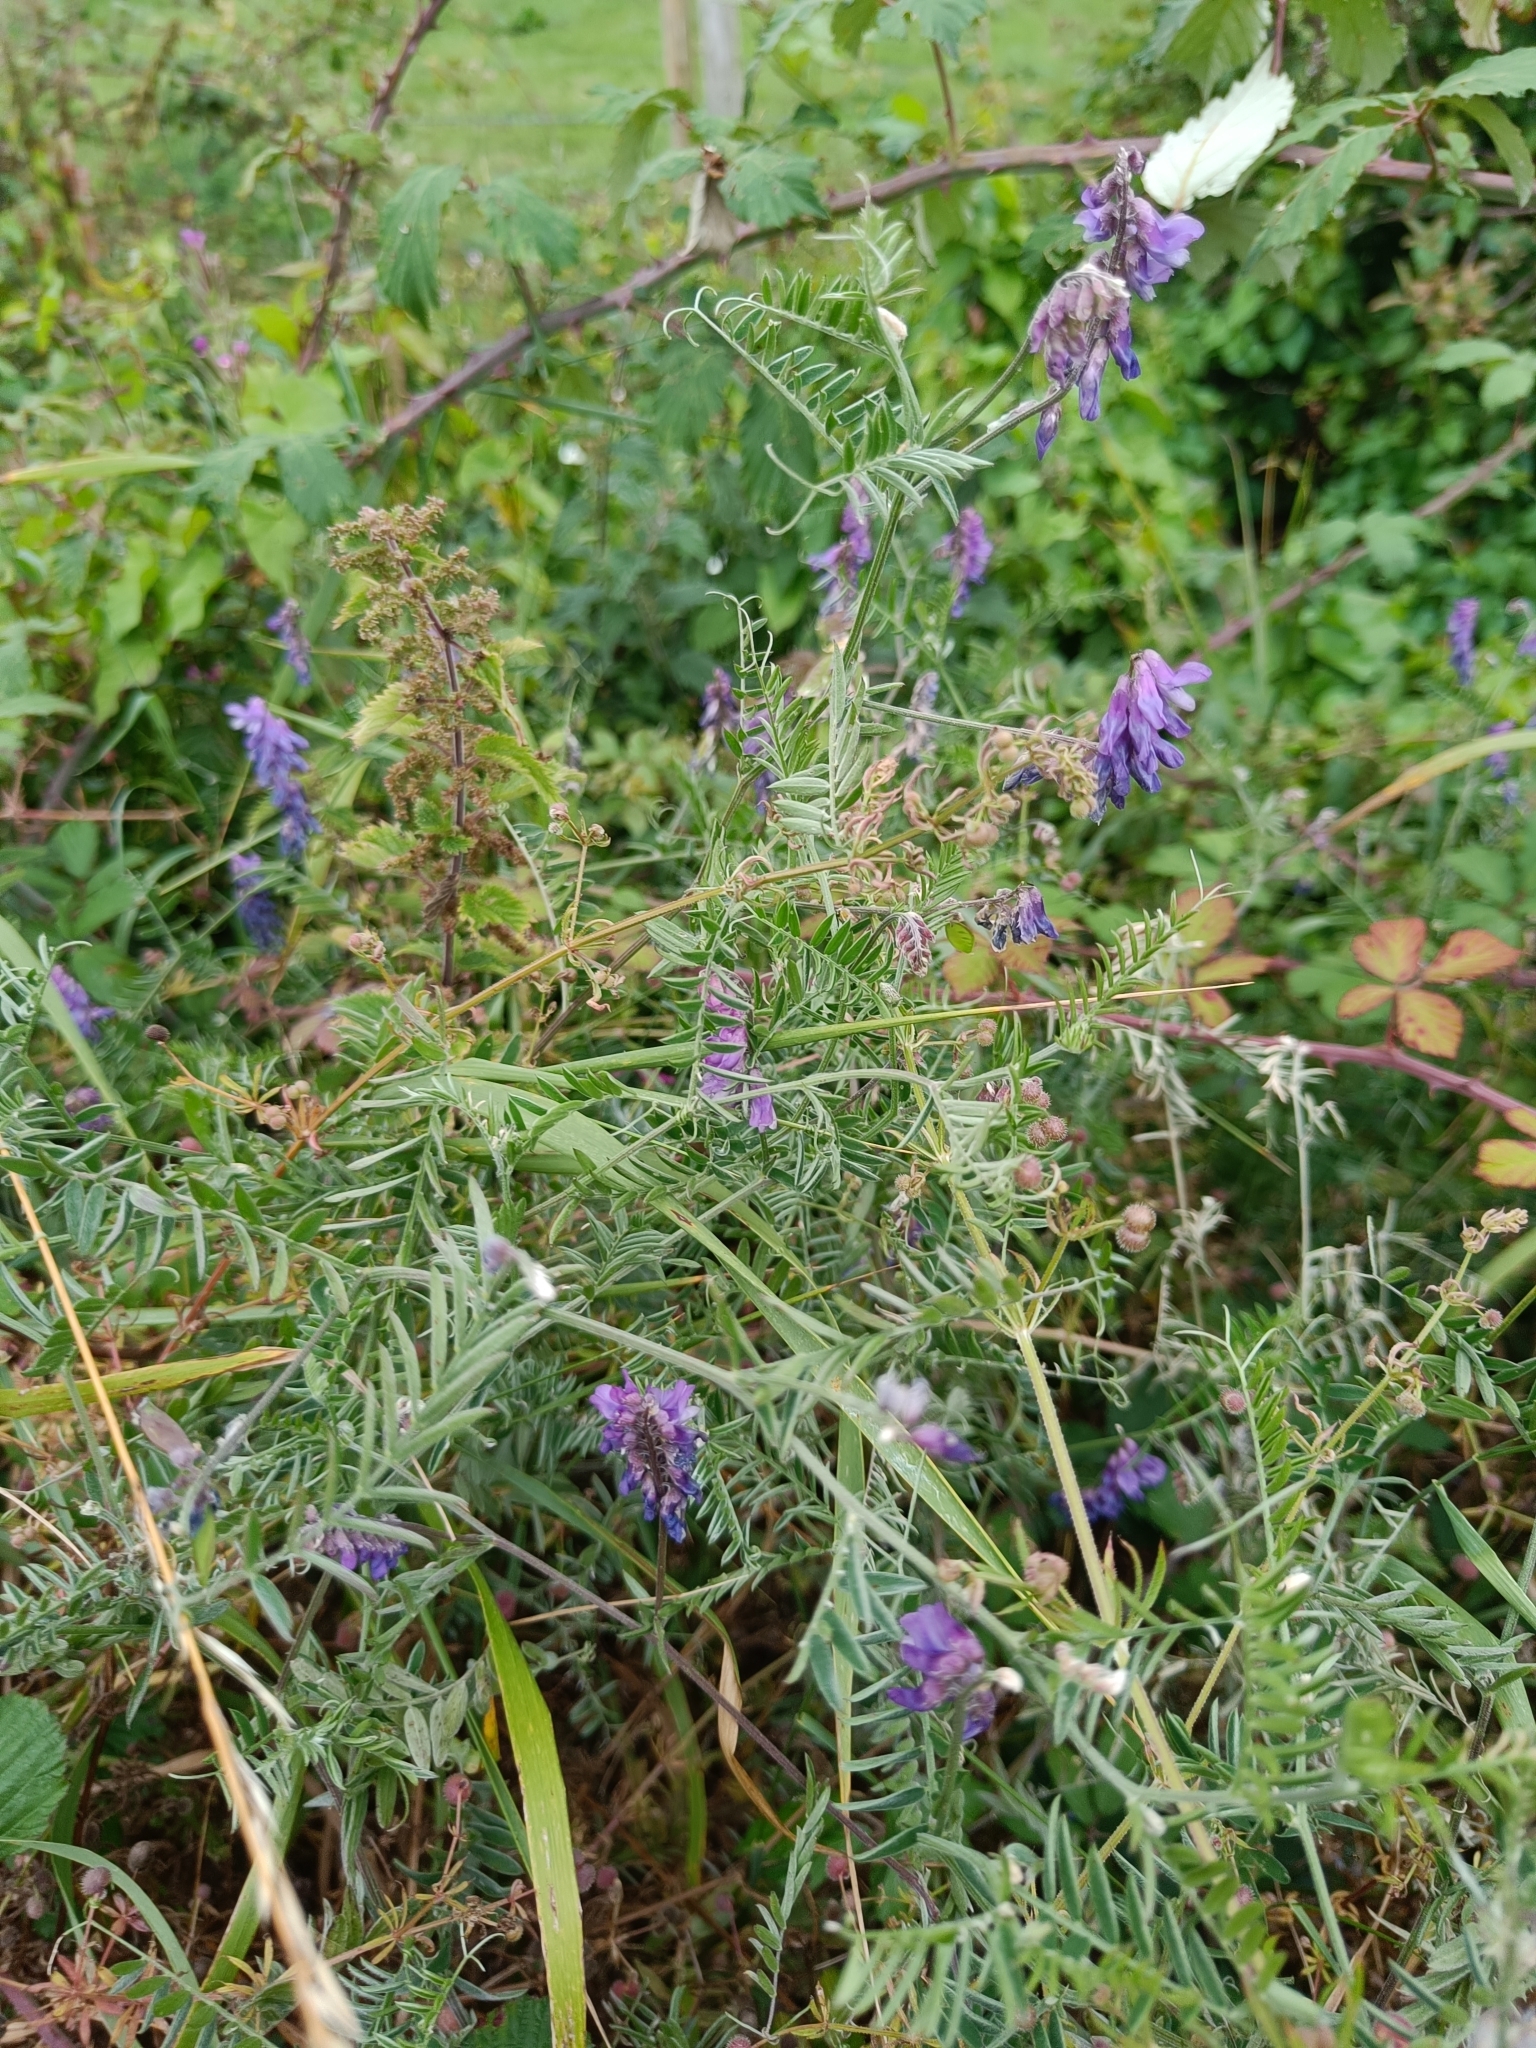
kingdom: Plantae
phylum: Tracheophyta
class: Magnoliopsida
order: Fabales
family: Fabaceae
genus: Vicia
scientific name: Vicia cracca
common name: Bird vetch
